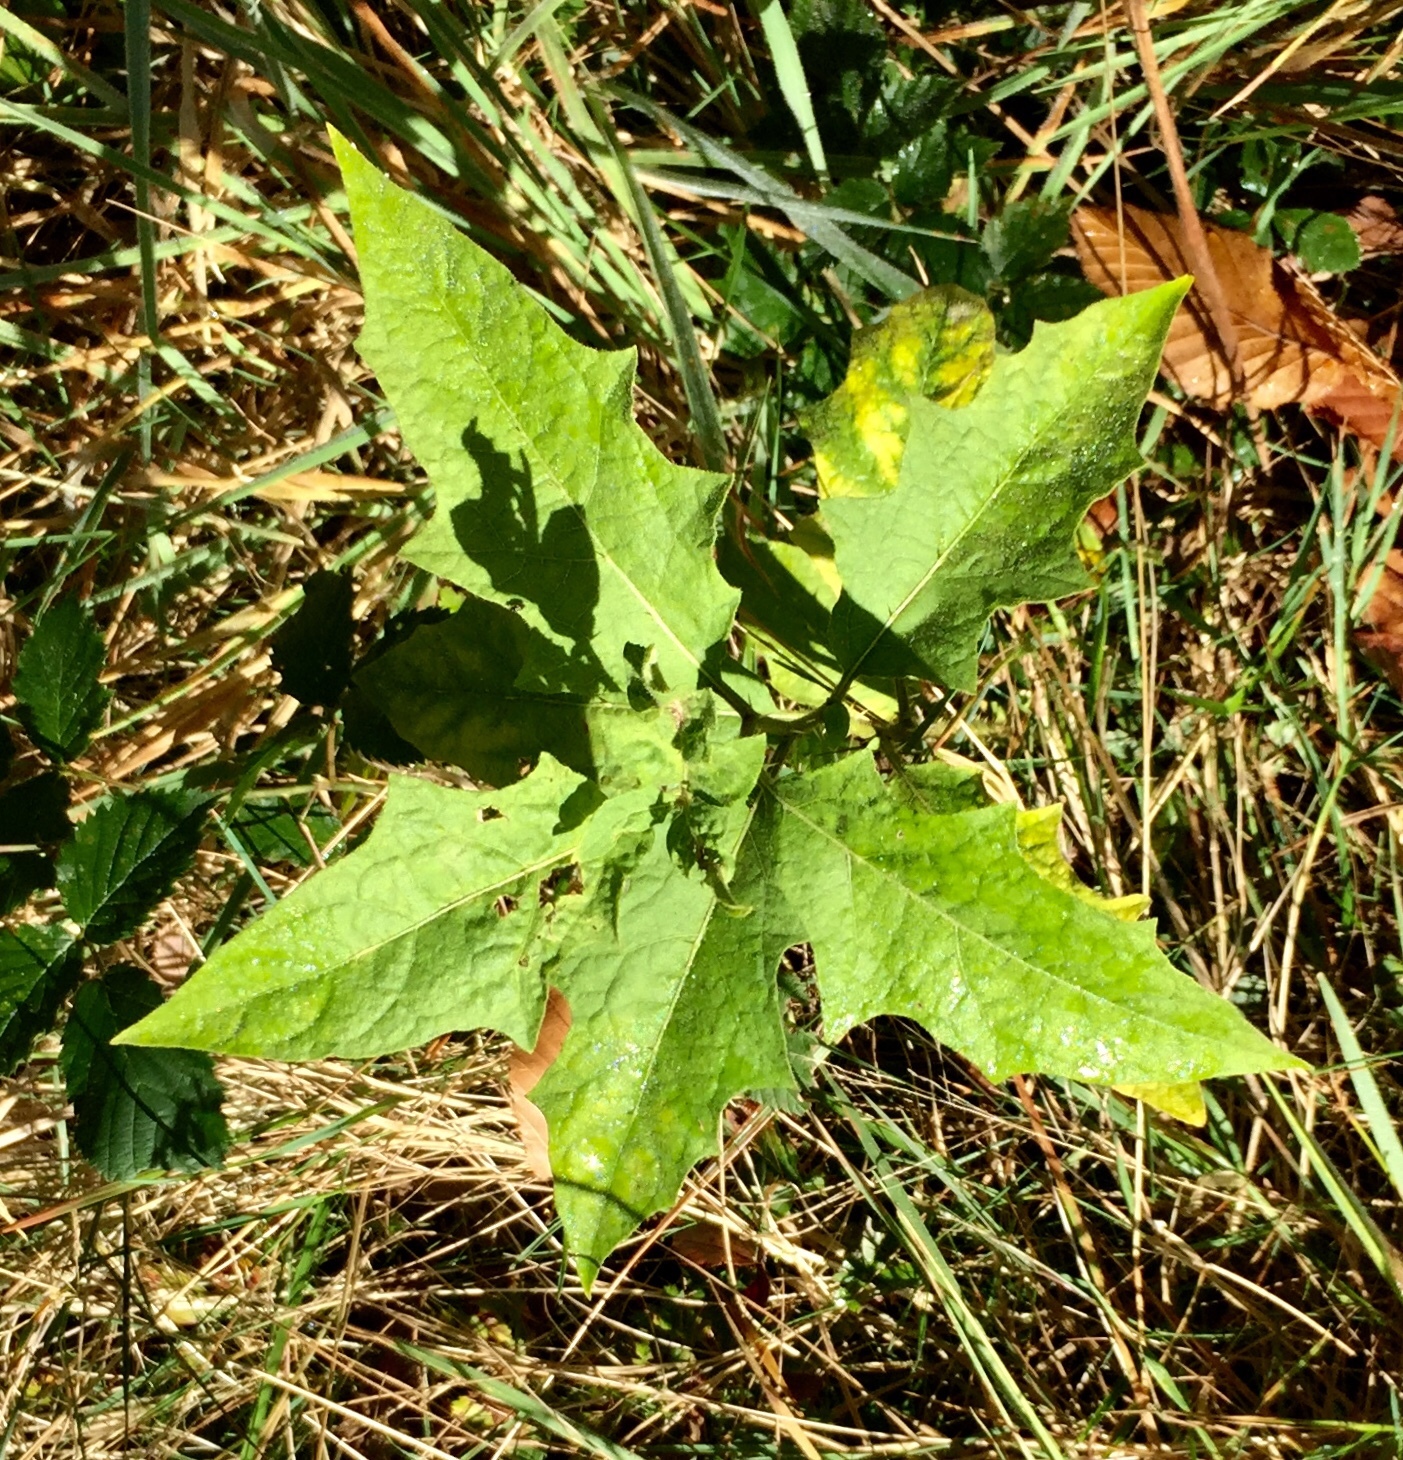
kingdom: Plantae
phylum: Tracheophyta
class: Magnoliopsida
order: Solanales
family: Solanaceae
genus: Solanum
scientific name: Solanum carolinense
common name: Horse-nettle
